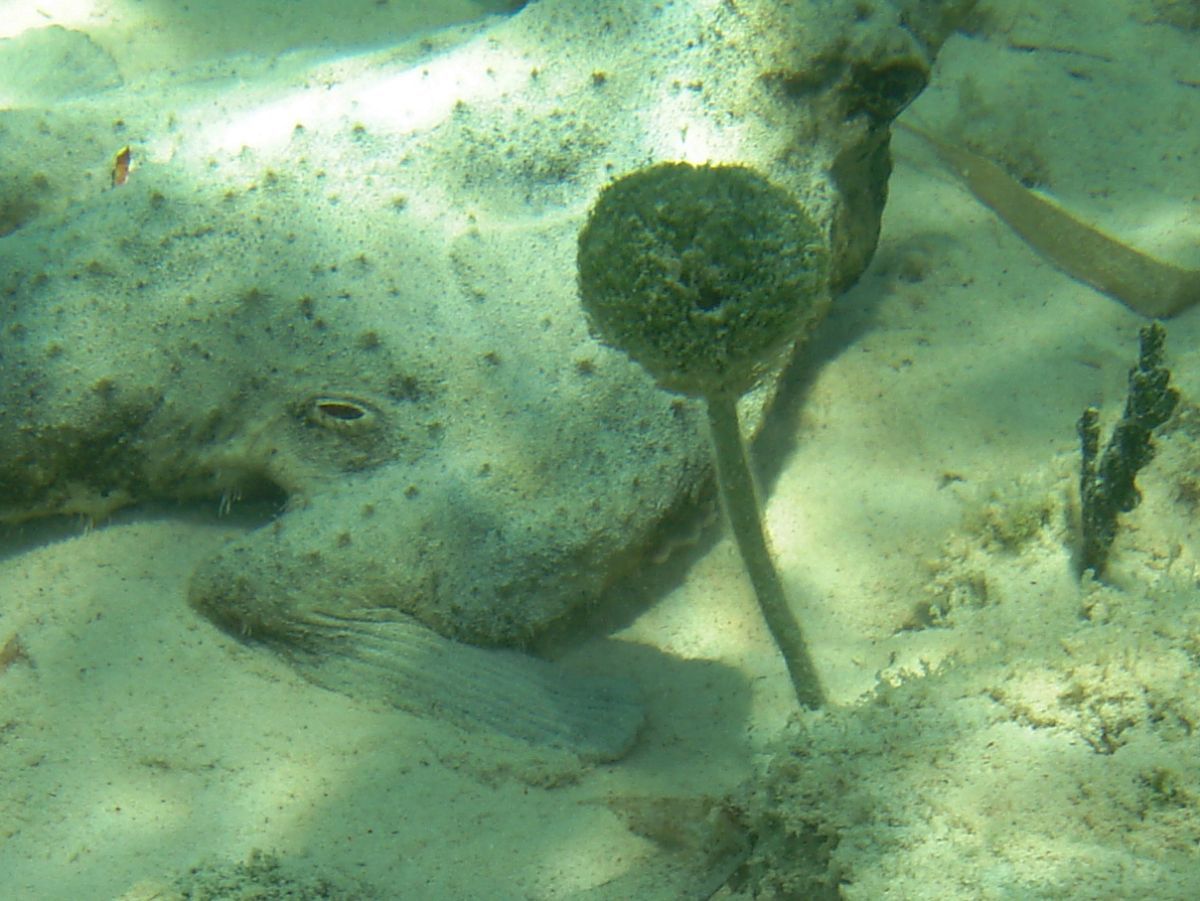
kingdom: Plantae
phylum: Chlorophyta
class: Ulvophyceae
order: Bryopsidales
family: Udoteaceae
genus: Penicillus
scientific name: Penicillus capitatus
